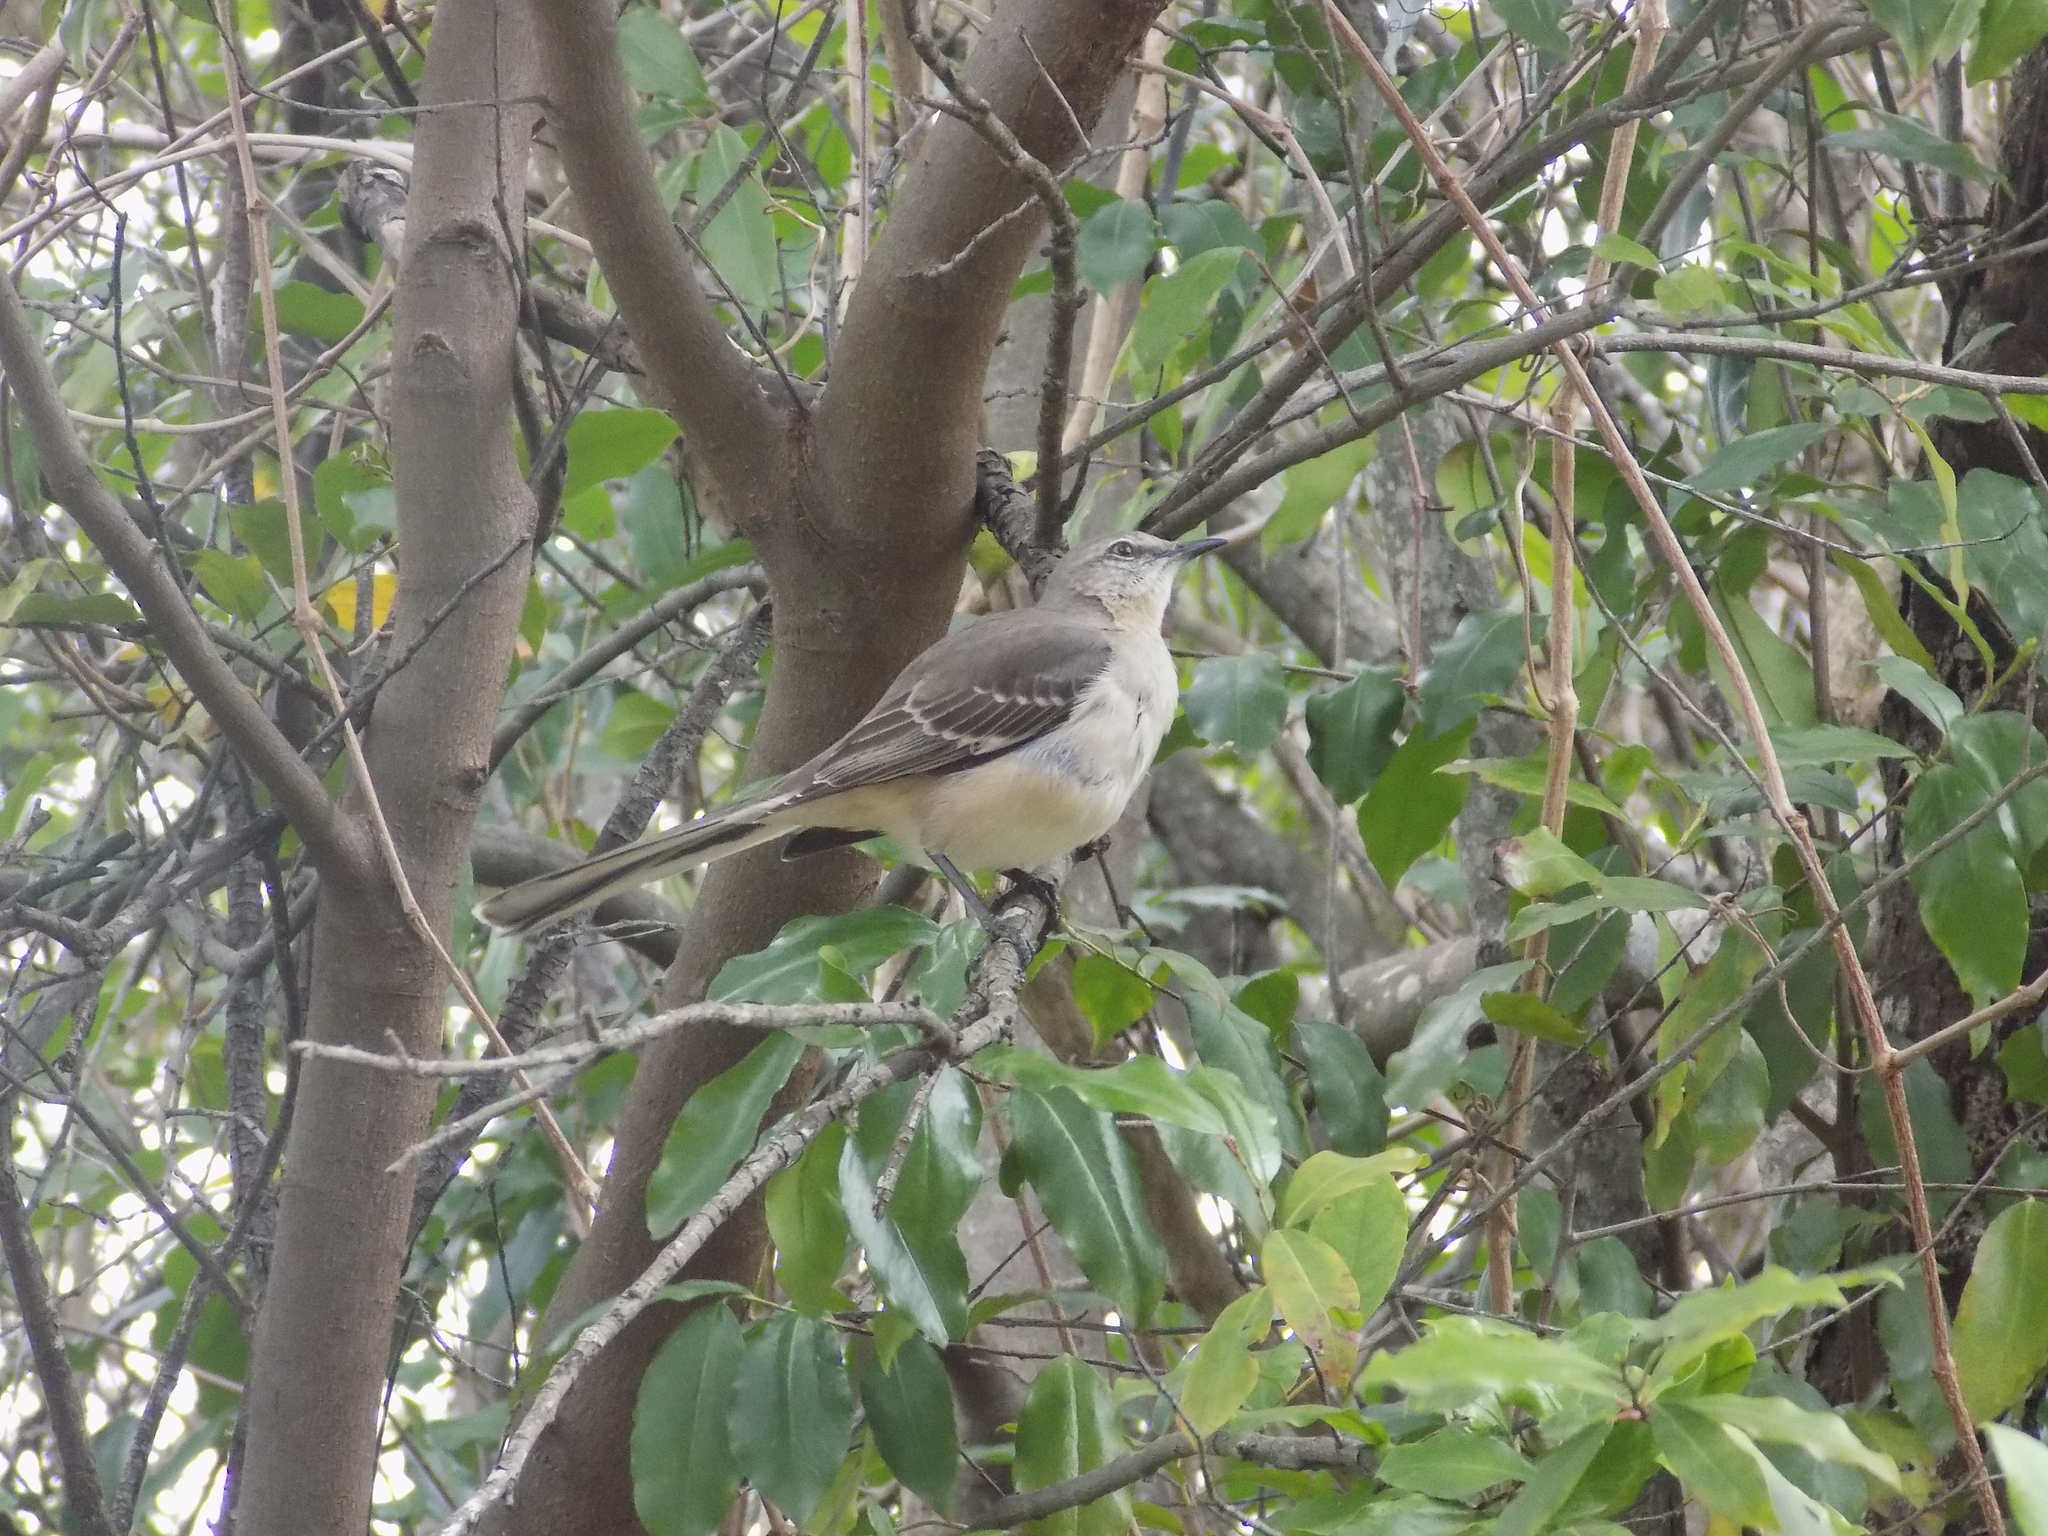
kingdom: Animalia
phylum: Chordata
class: Aves
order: Passeriformes
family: Mimidae
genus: Mimus
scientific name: Mimus polyglottos
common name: Northern mockingbird
